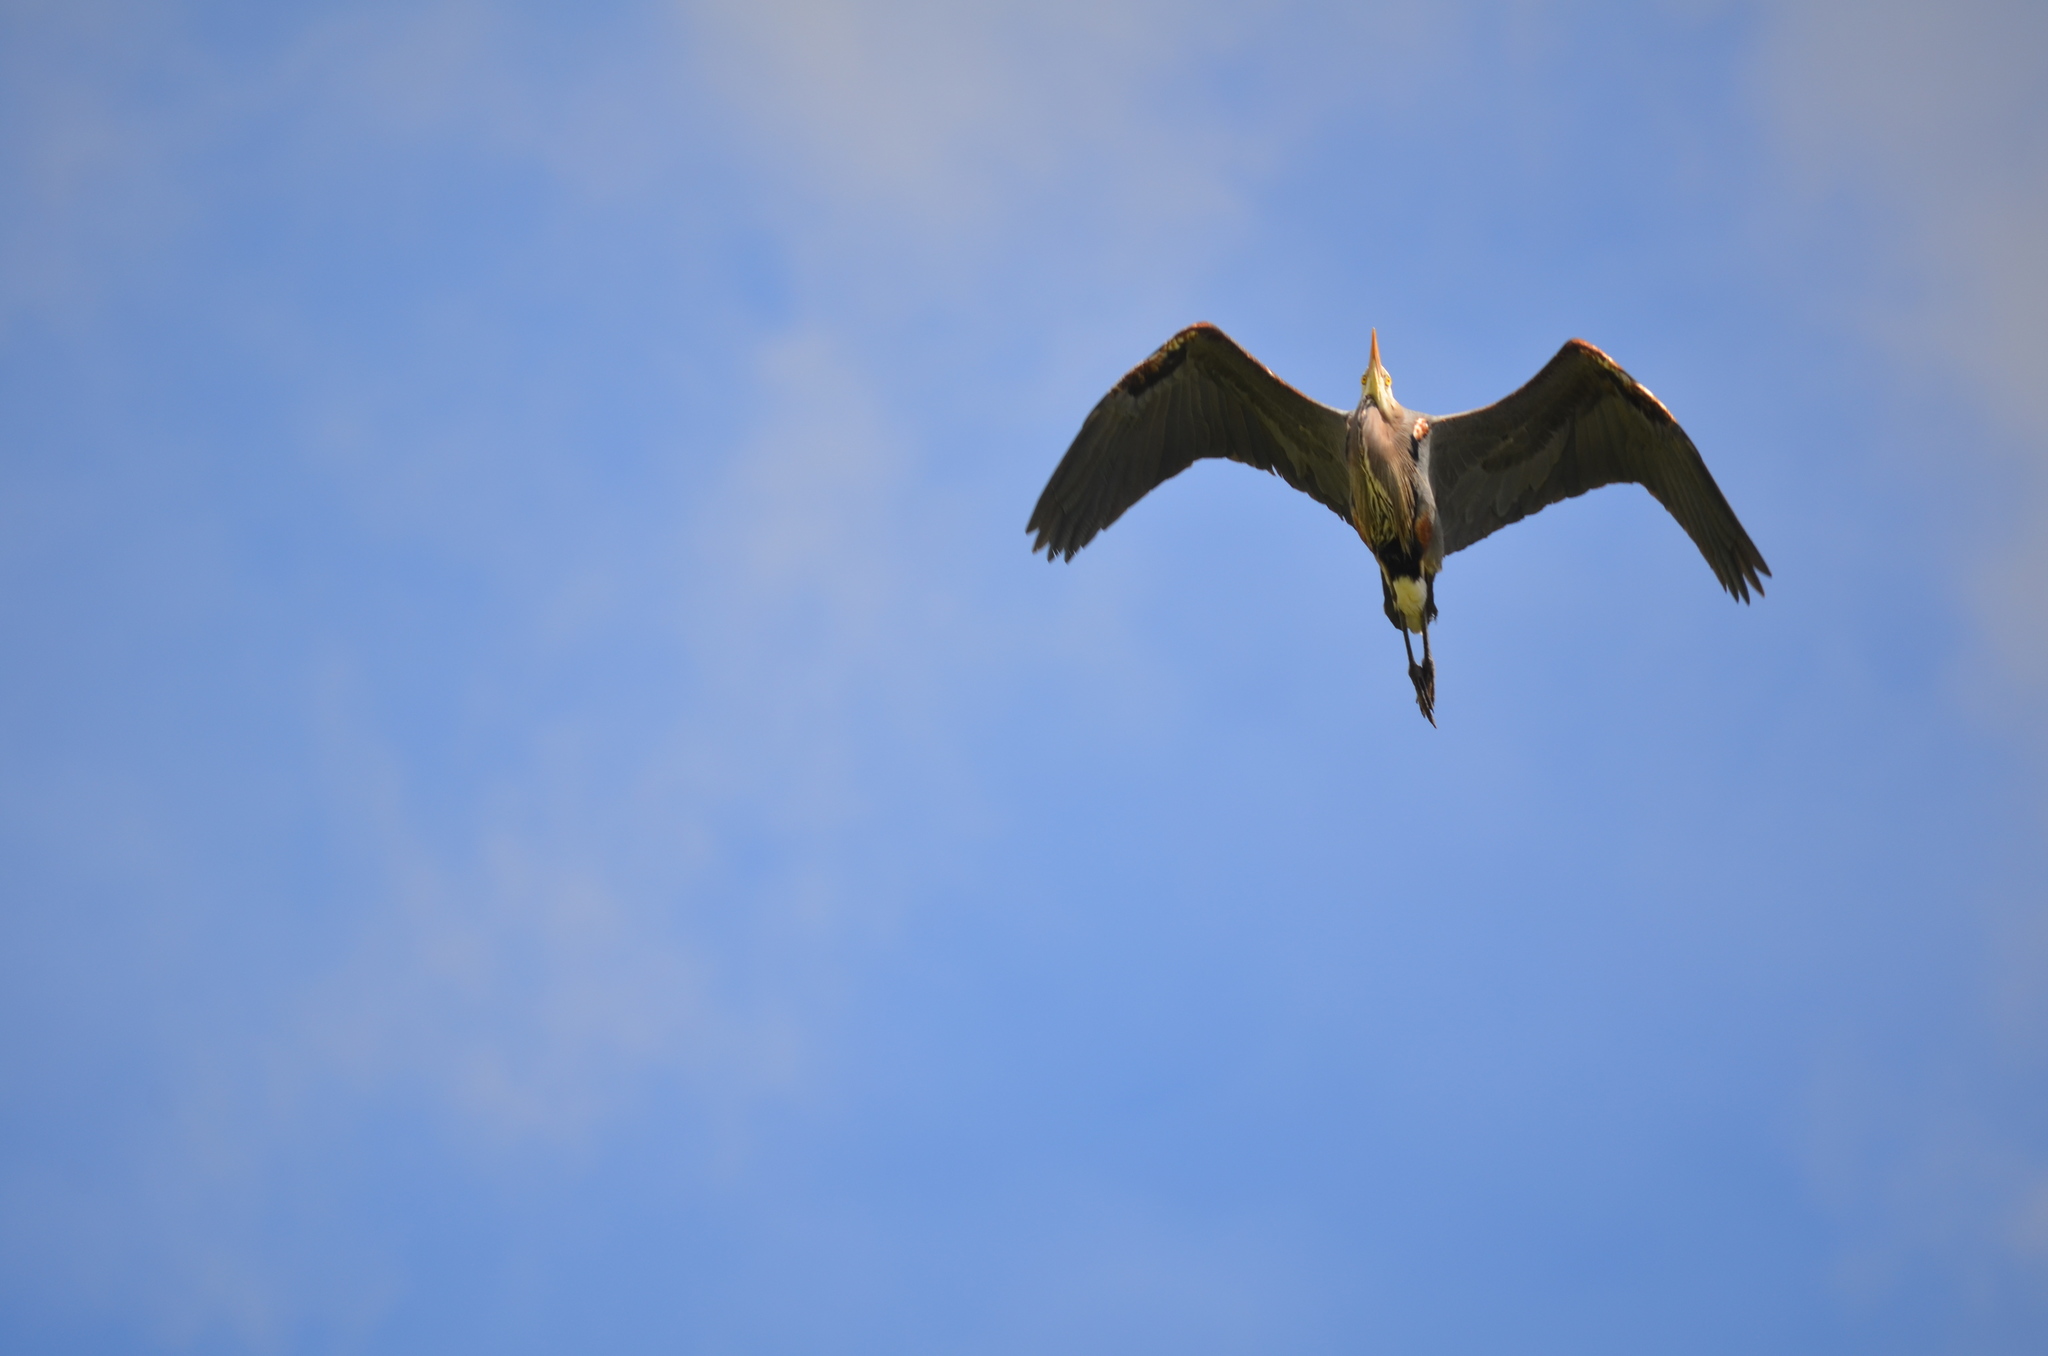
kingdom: Animalia
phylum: Chordata
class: Aves
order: Pelecaniformes
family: Ardeidae
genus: Ardea
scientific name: Ardea herodias
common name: Great blue heron
